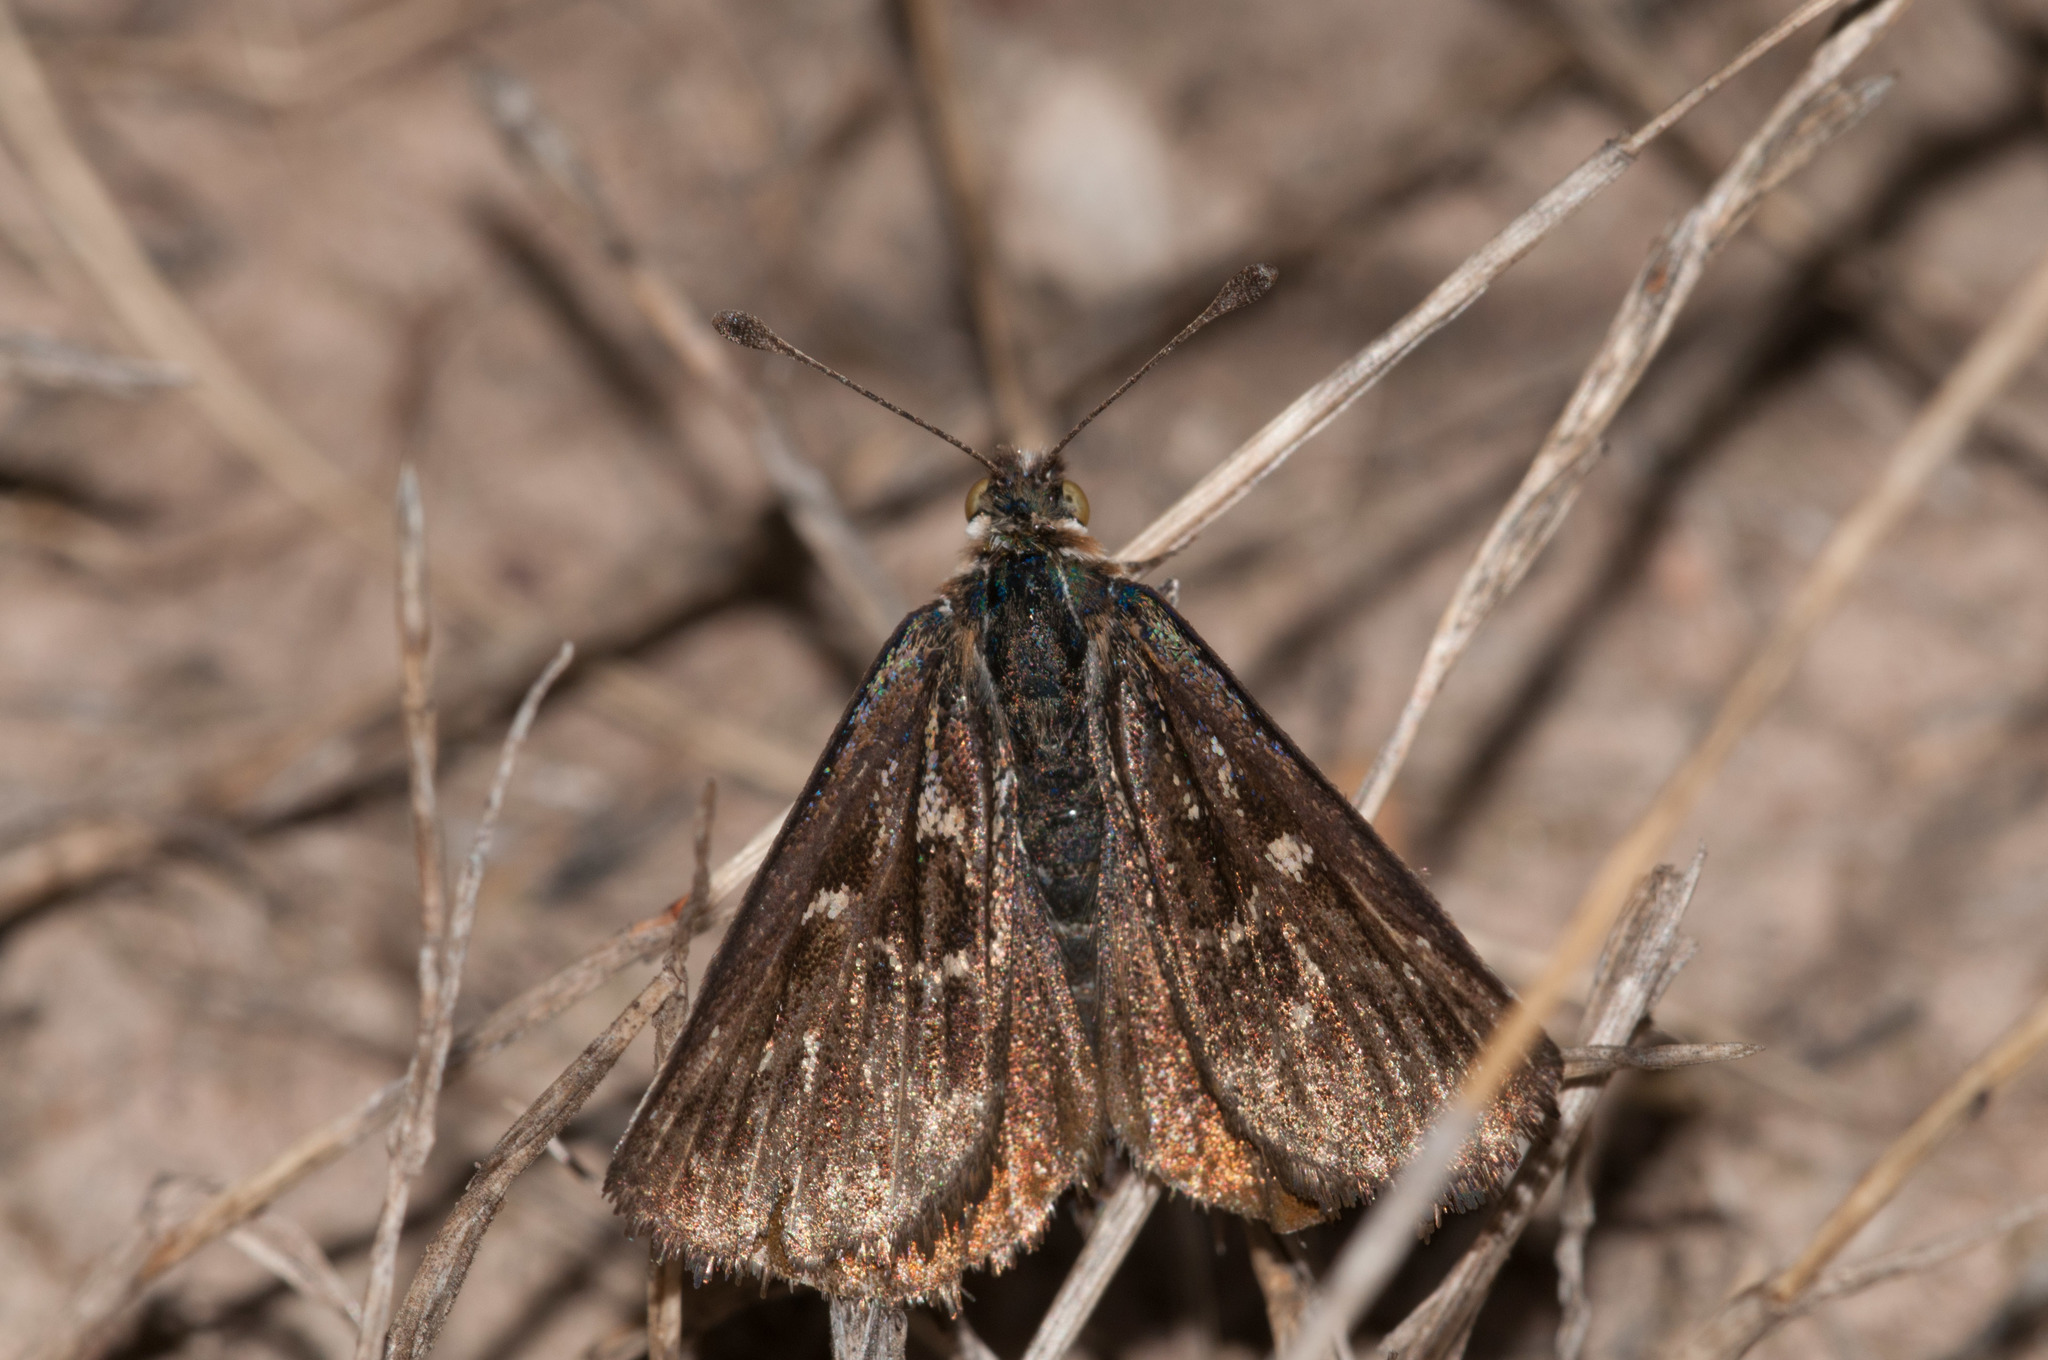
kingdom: Animalia
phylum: Arthropoda
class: Insecta
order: Lepidoptera
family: Castniidae
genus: Synemon
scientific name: Synemon plana
